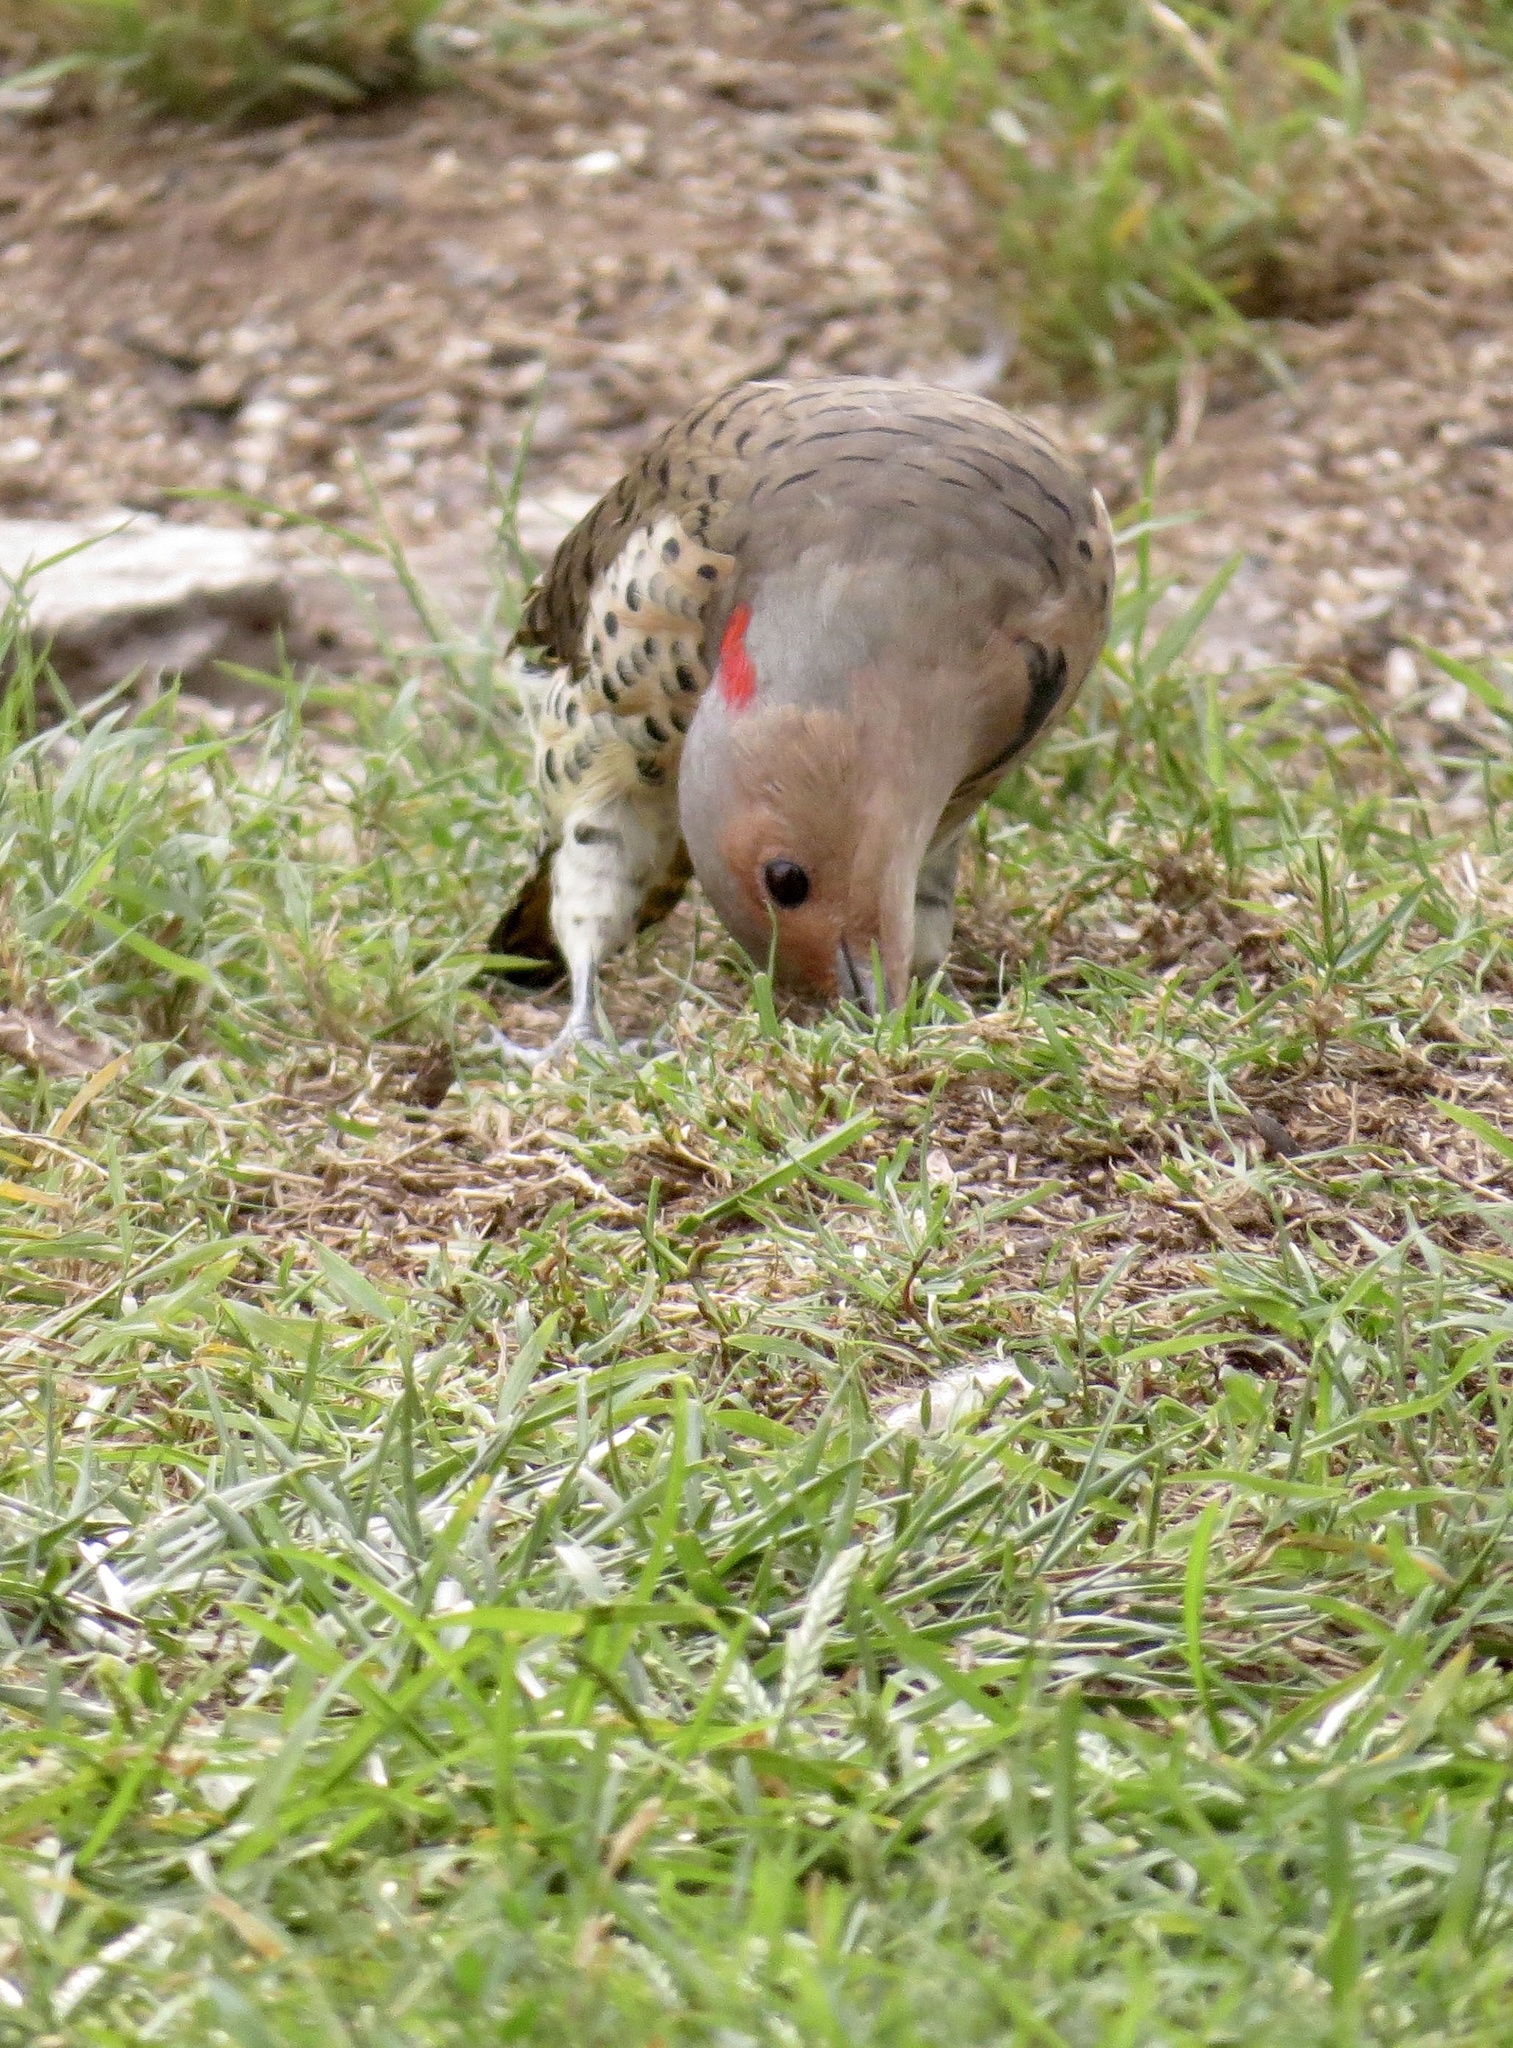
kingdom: Animalia
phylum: Chordata
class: Aves
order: Piciformes
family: Picidae
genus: Colaptes
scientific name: Colaptes auratus
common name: Northern flicker
